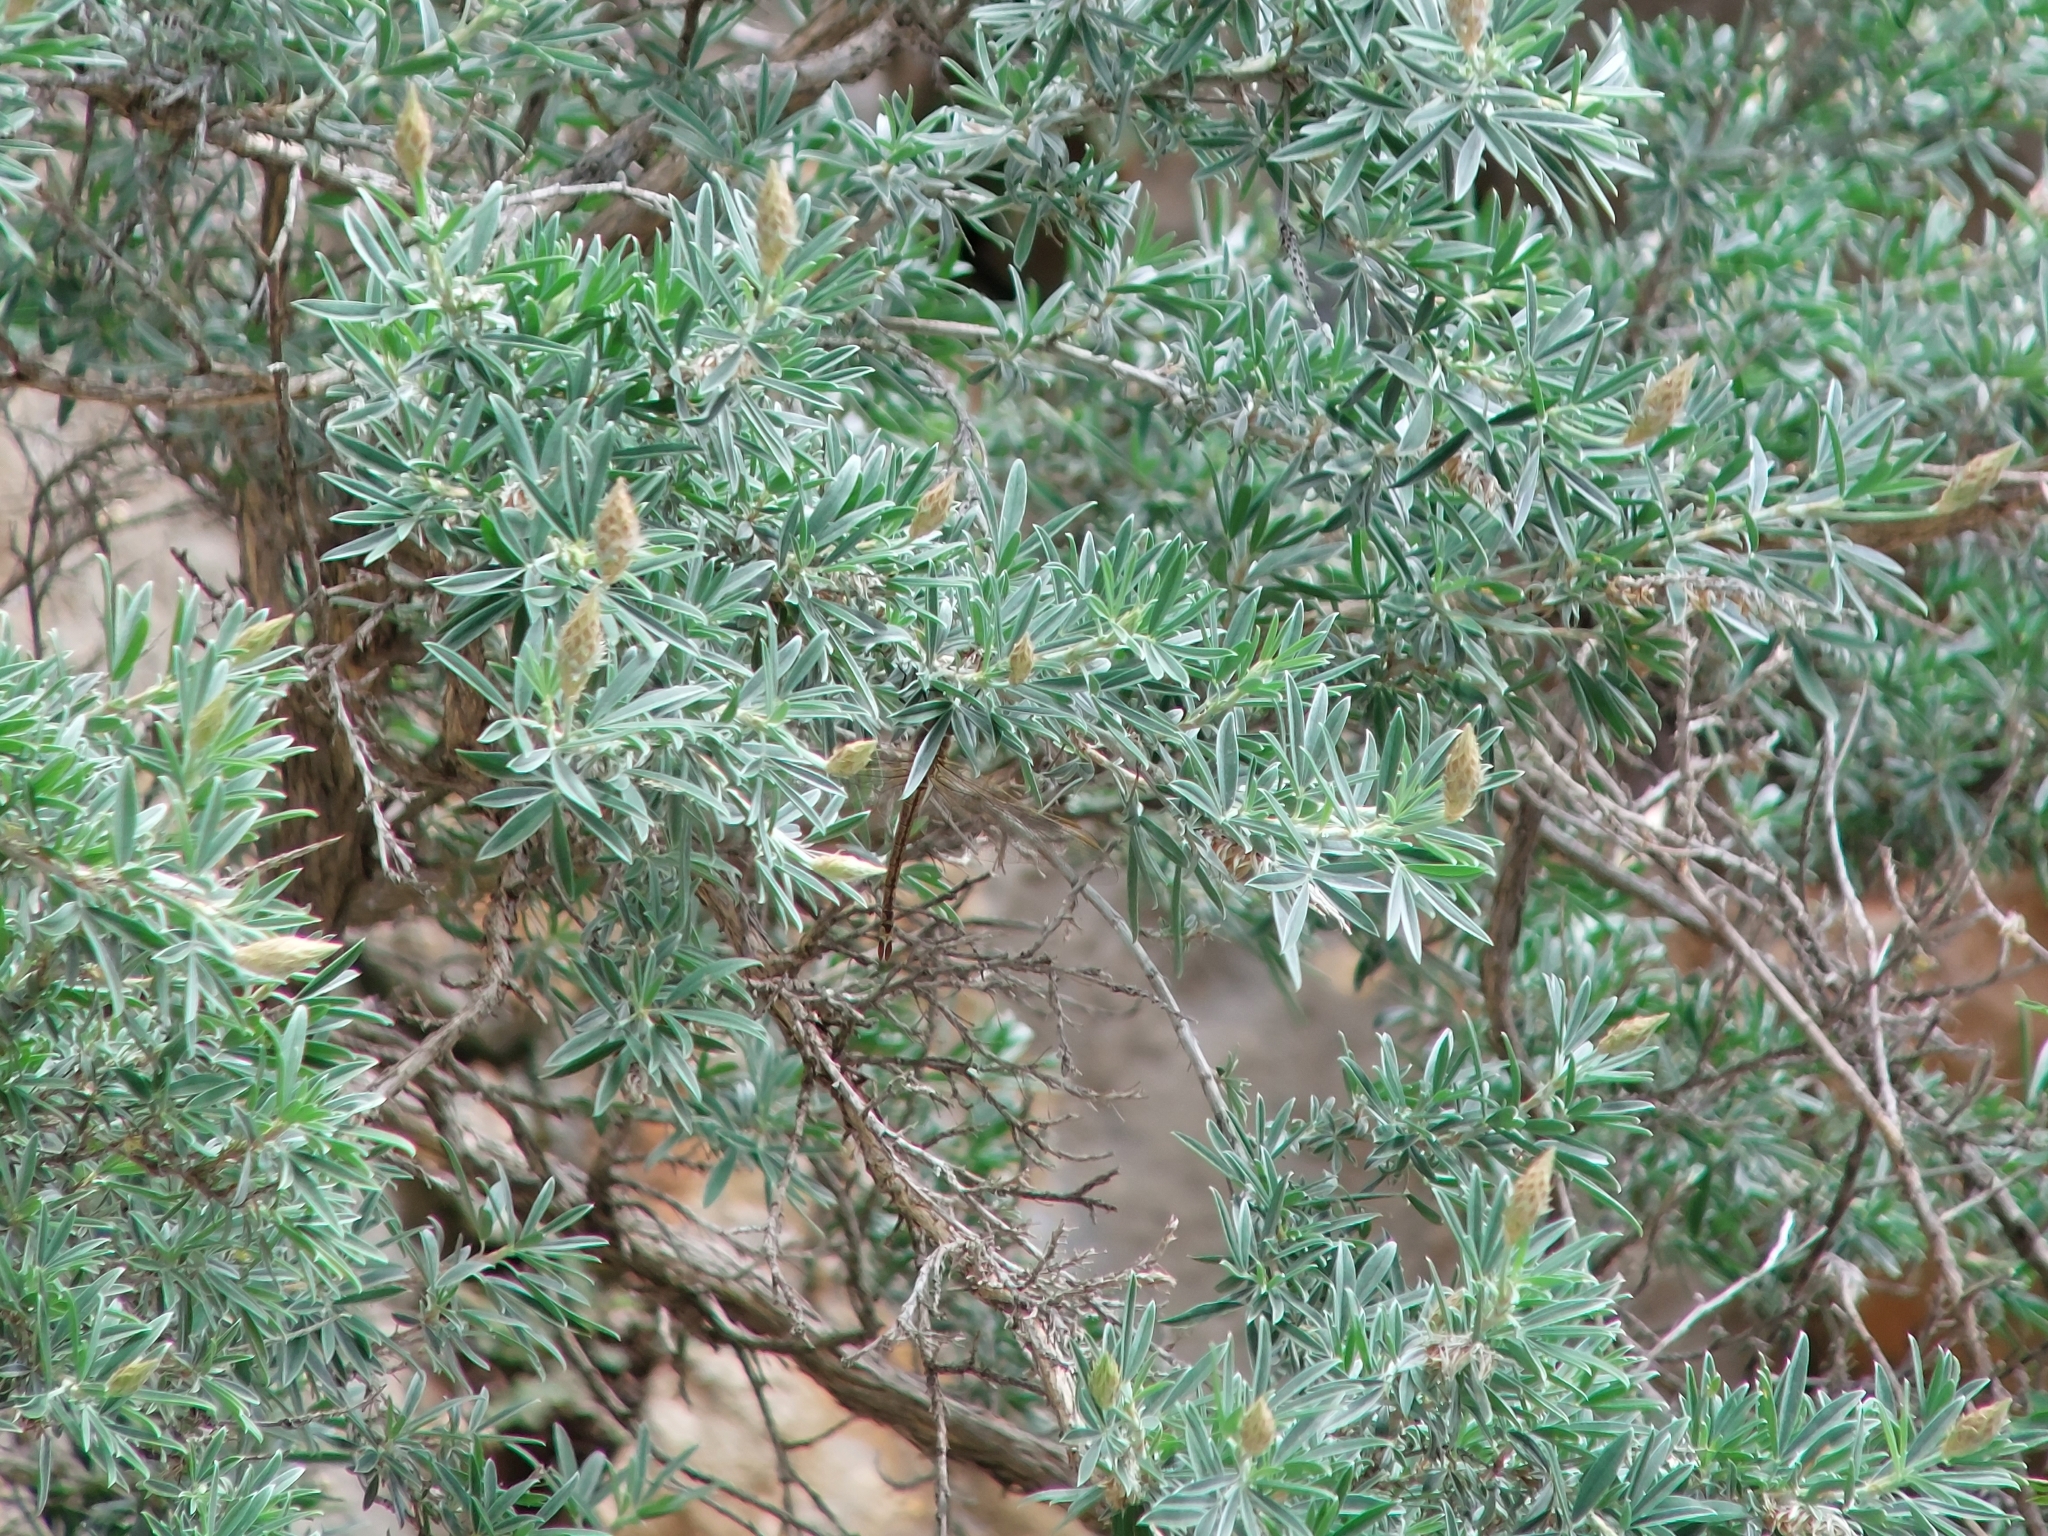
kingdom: Animalia
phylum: Arthropoda
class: Insecta
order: Odonata
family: Aeshnidae
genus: Anax
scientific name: Anax ephippiger
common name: Vagrant emperor
